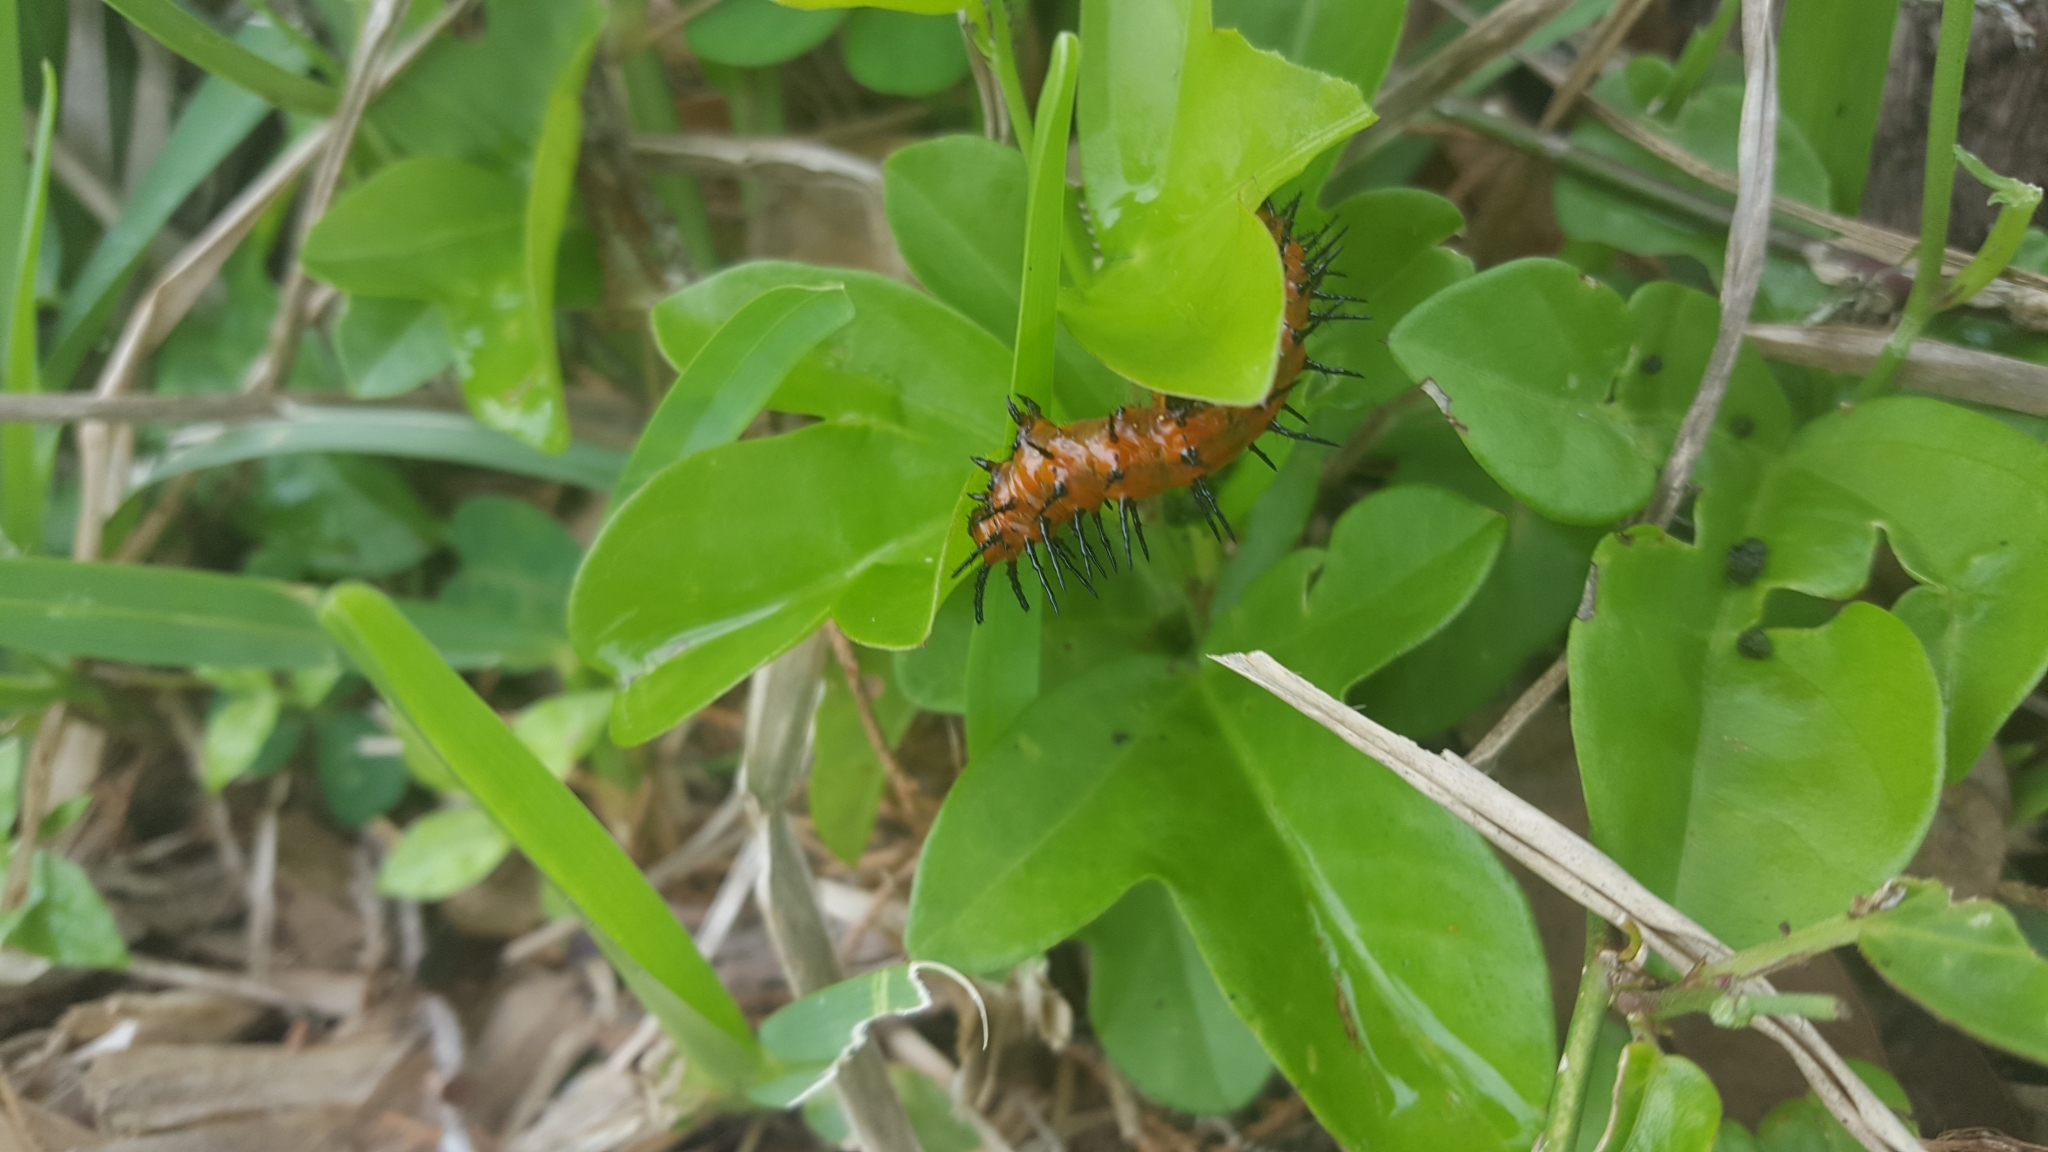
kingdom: Animalia
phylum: Arthropoda
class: Insecta
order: Lepidoptera
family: Nymphalidae
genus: Dione
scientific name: Dione vanillae
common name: Gulf fritillary
